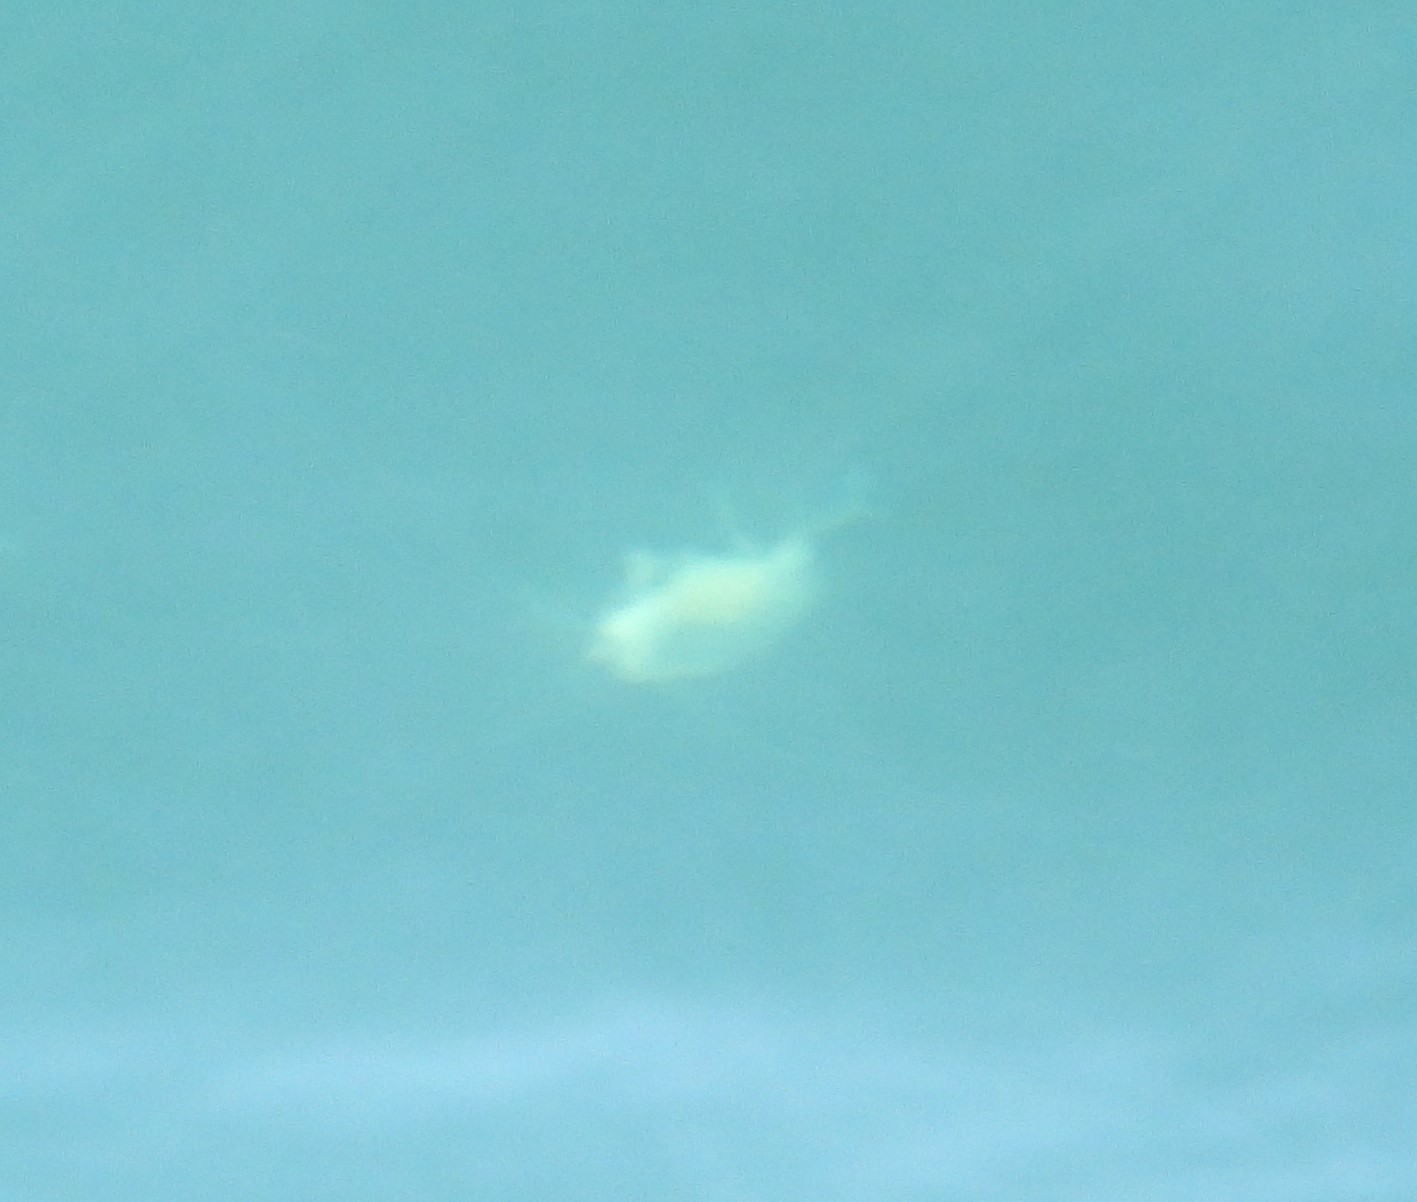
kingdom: Animalia
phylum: Cnidaria
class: Scyphozoa
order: Semaeostomeae
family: Phacellophoridae
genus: Phacellophora
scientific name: Phacellophora camtschatica
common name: Fried-egg jellyfish
